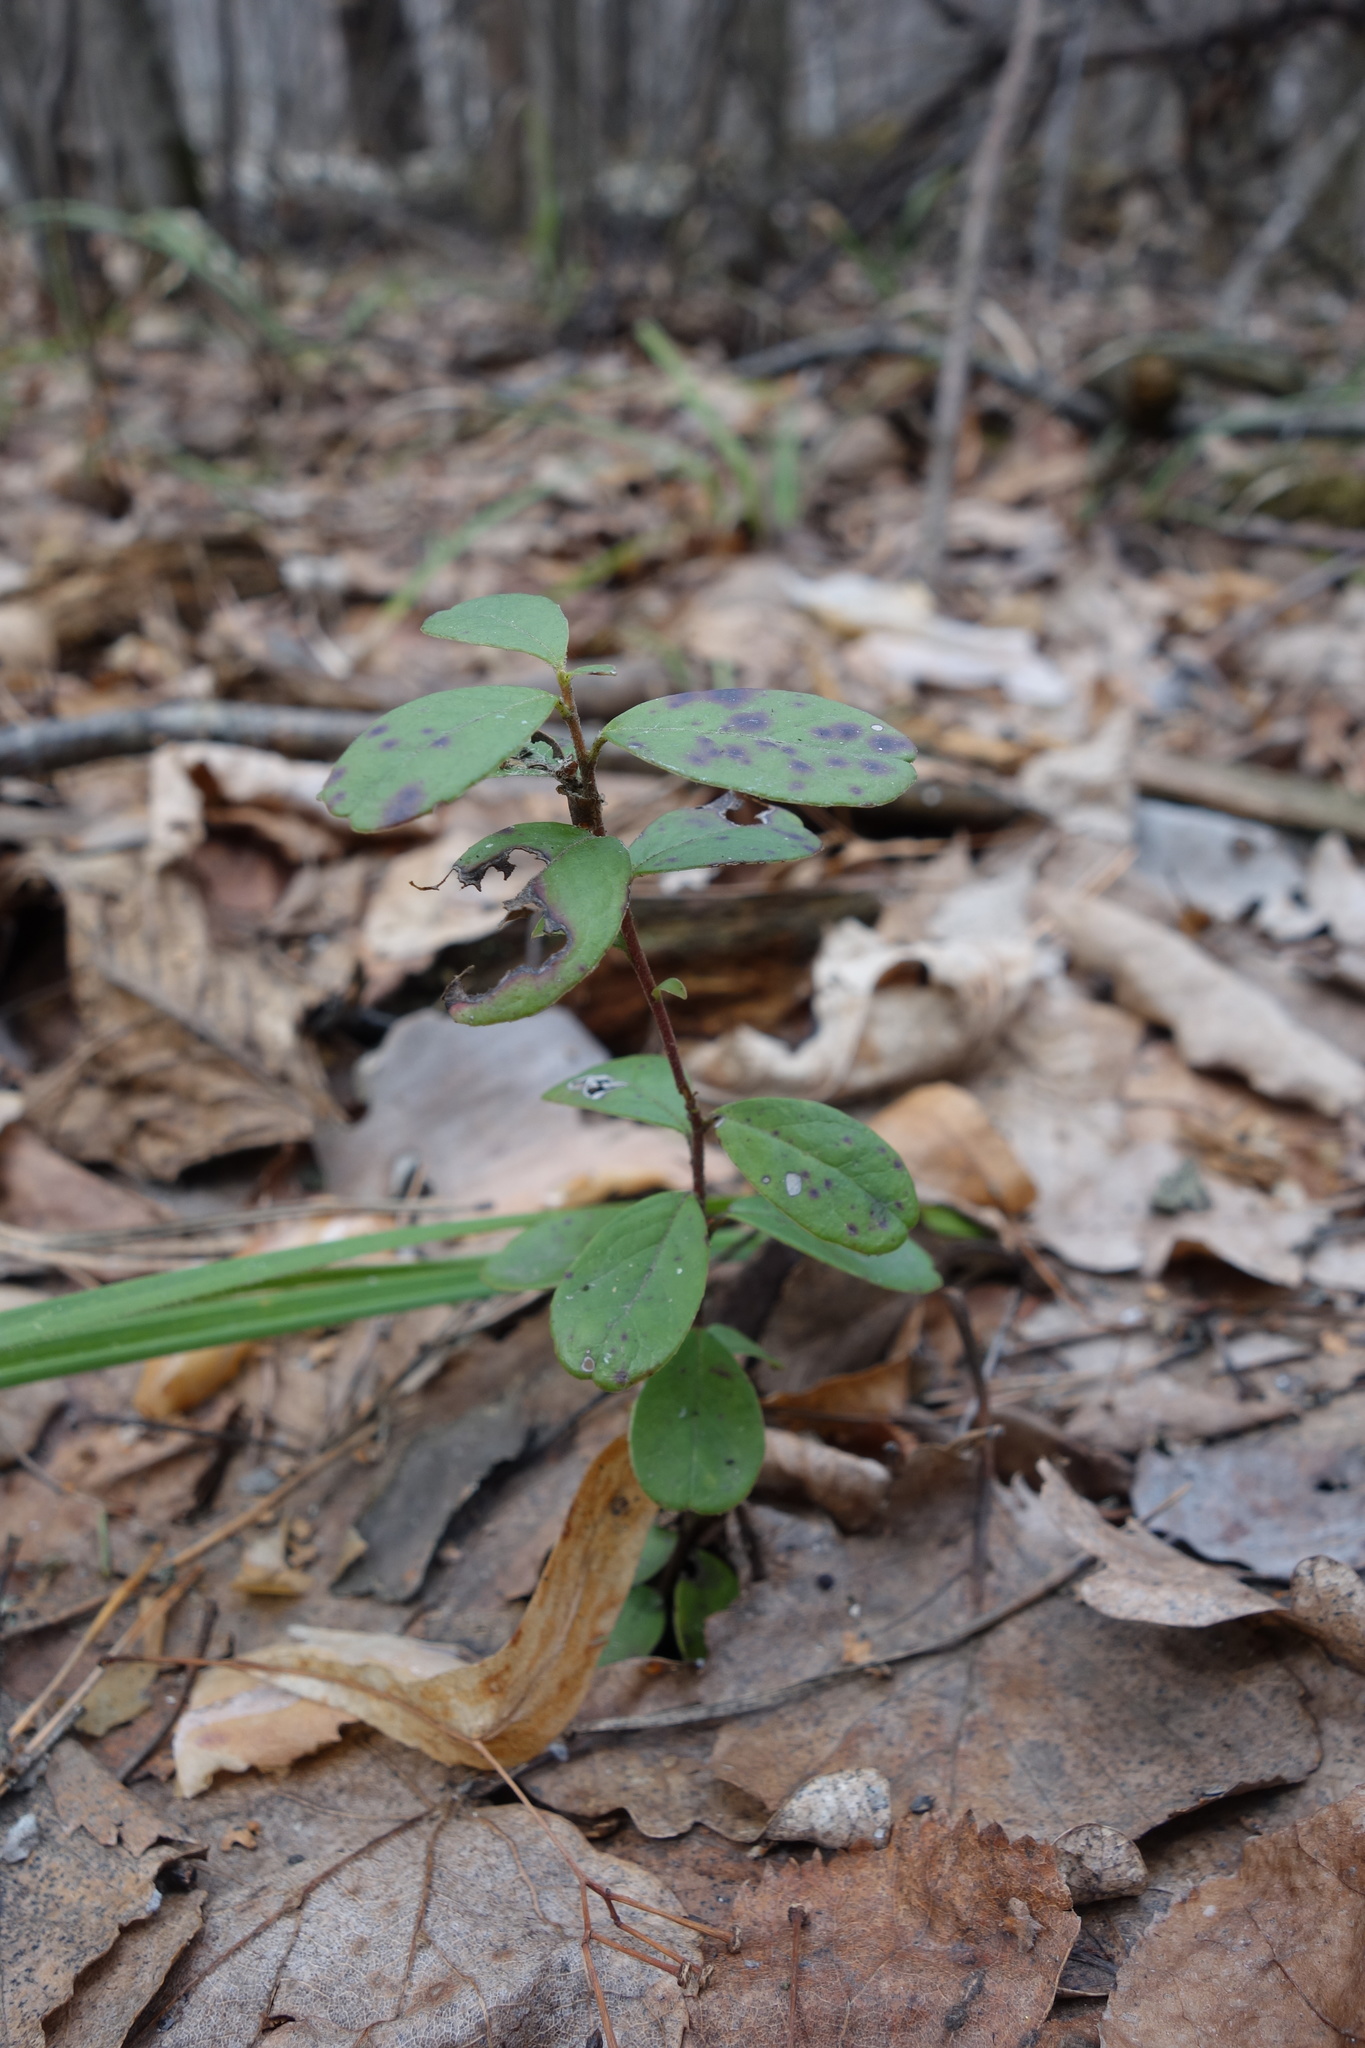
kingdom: Plantae
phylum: Tracheophyta
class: Magnoliopsida
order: Ericales
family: Ericaceae
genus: Vaccinium
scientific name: Vaccinium vitis-idaea
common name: Cowberry
